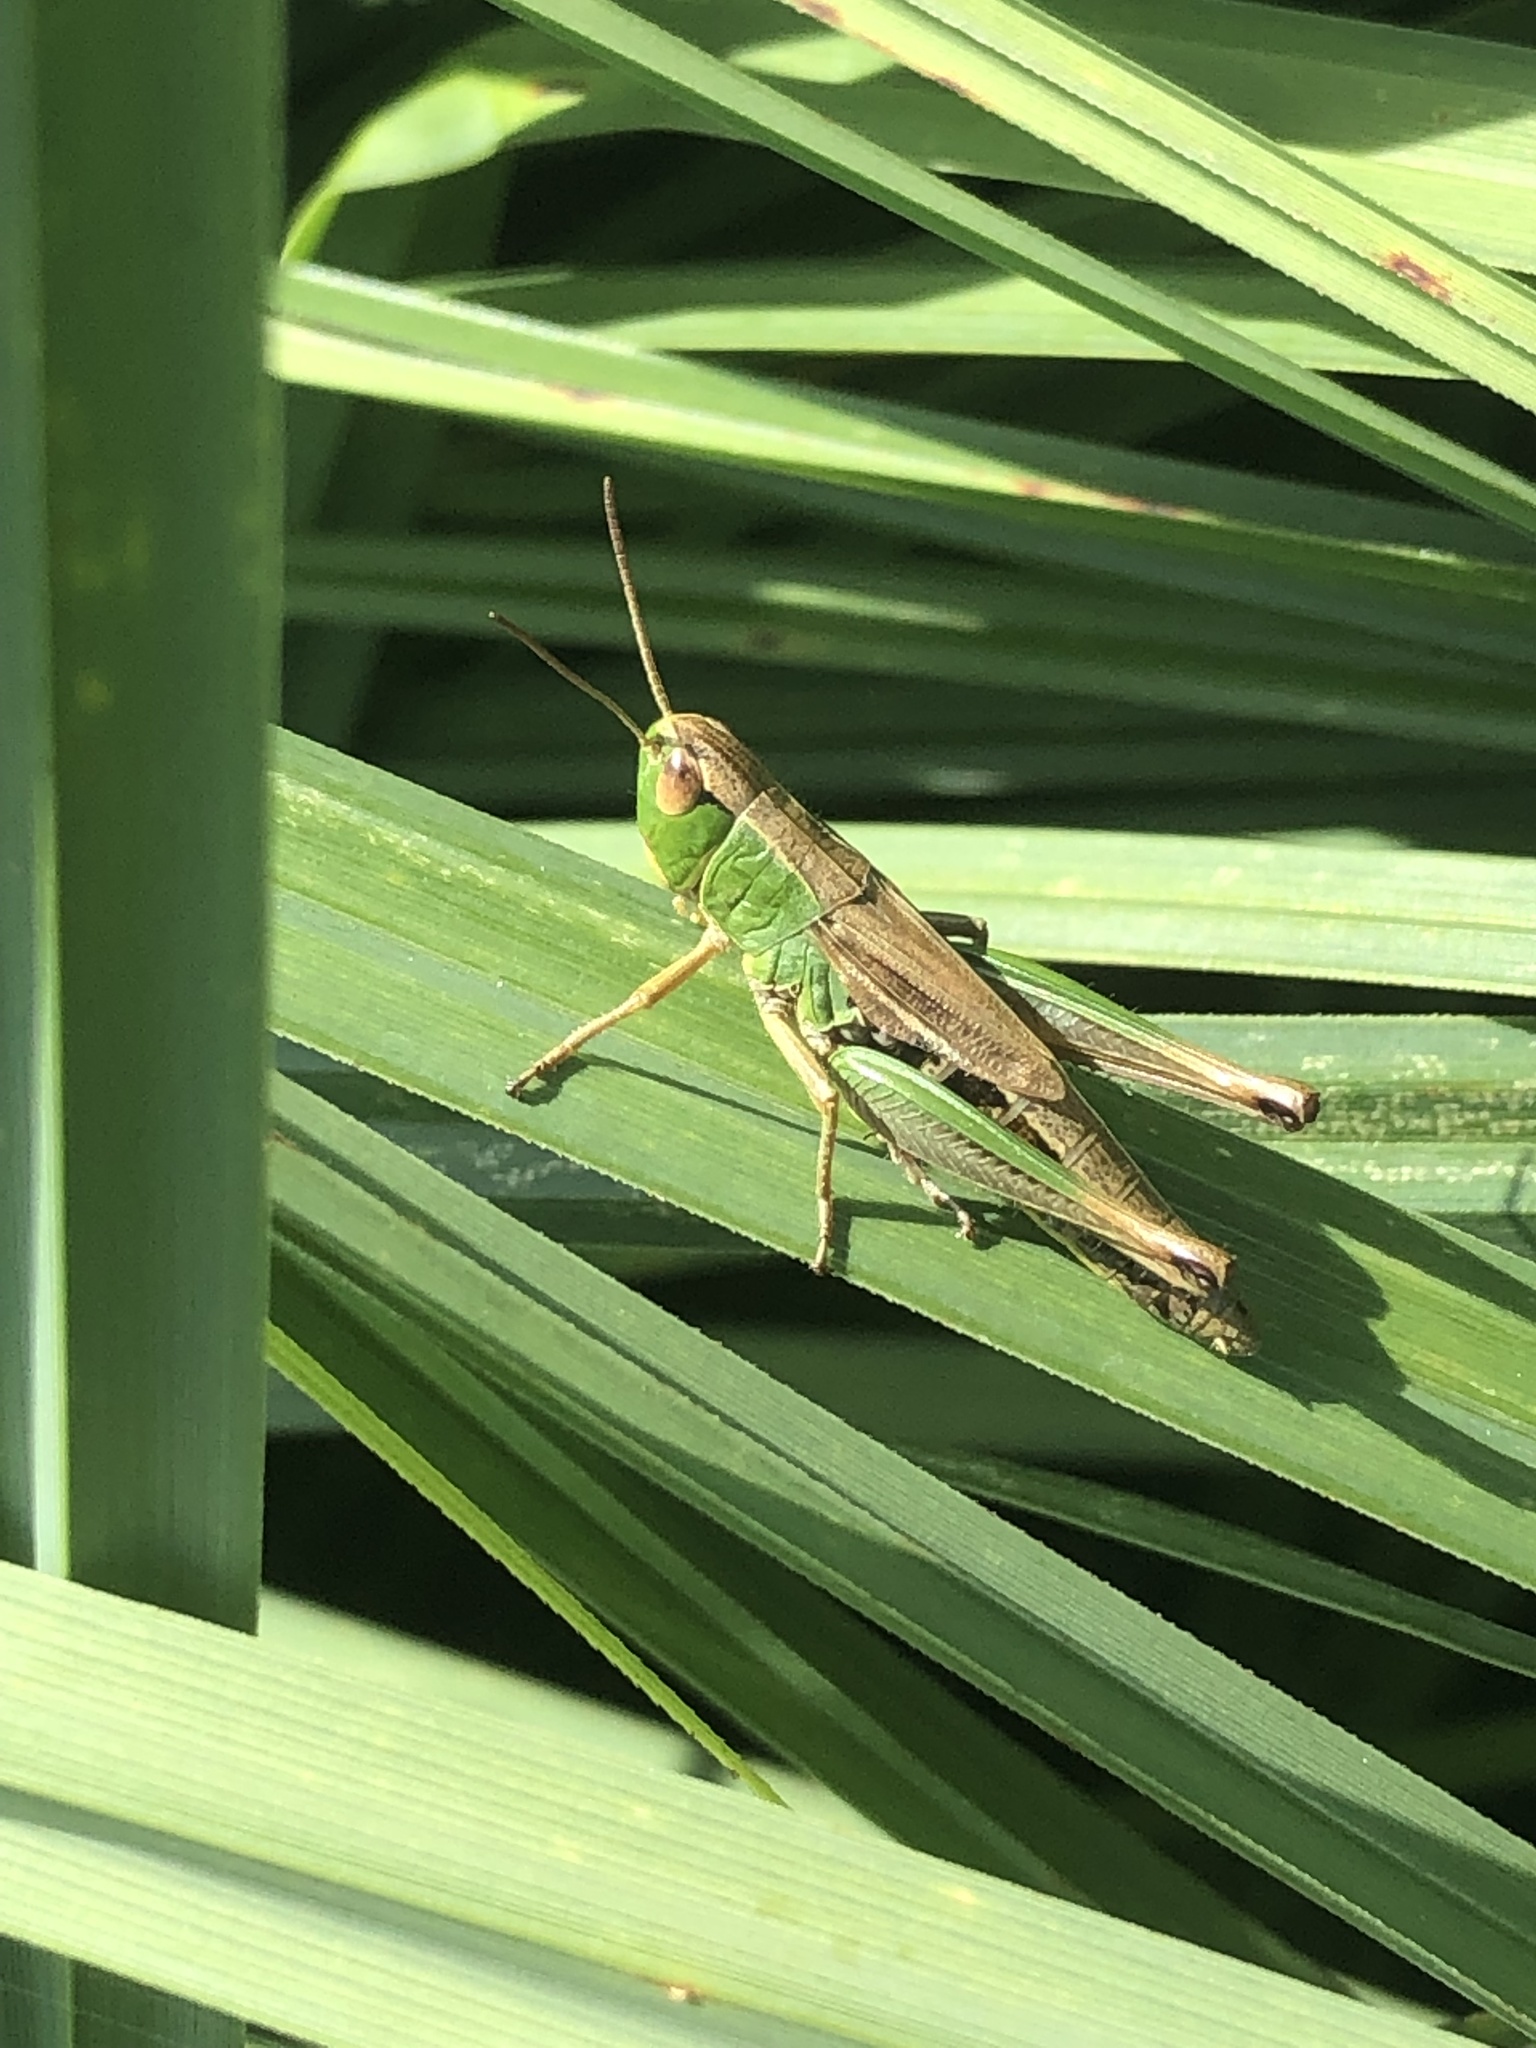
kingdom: Animalia
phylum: Arthropoda
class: Insecta
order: Orthoptera
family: Acrididae
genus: Pseudochorthippus
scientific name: Pseudochorthippus parallelus
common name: Meadow grasshopper
